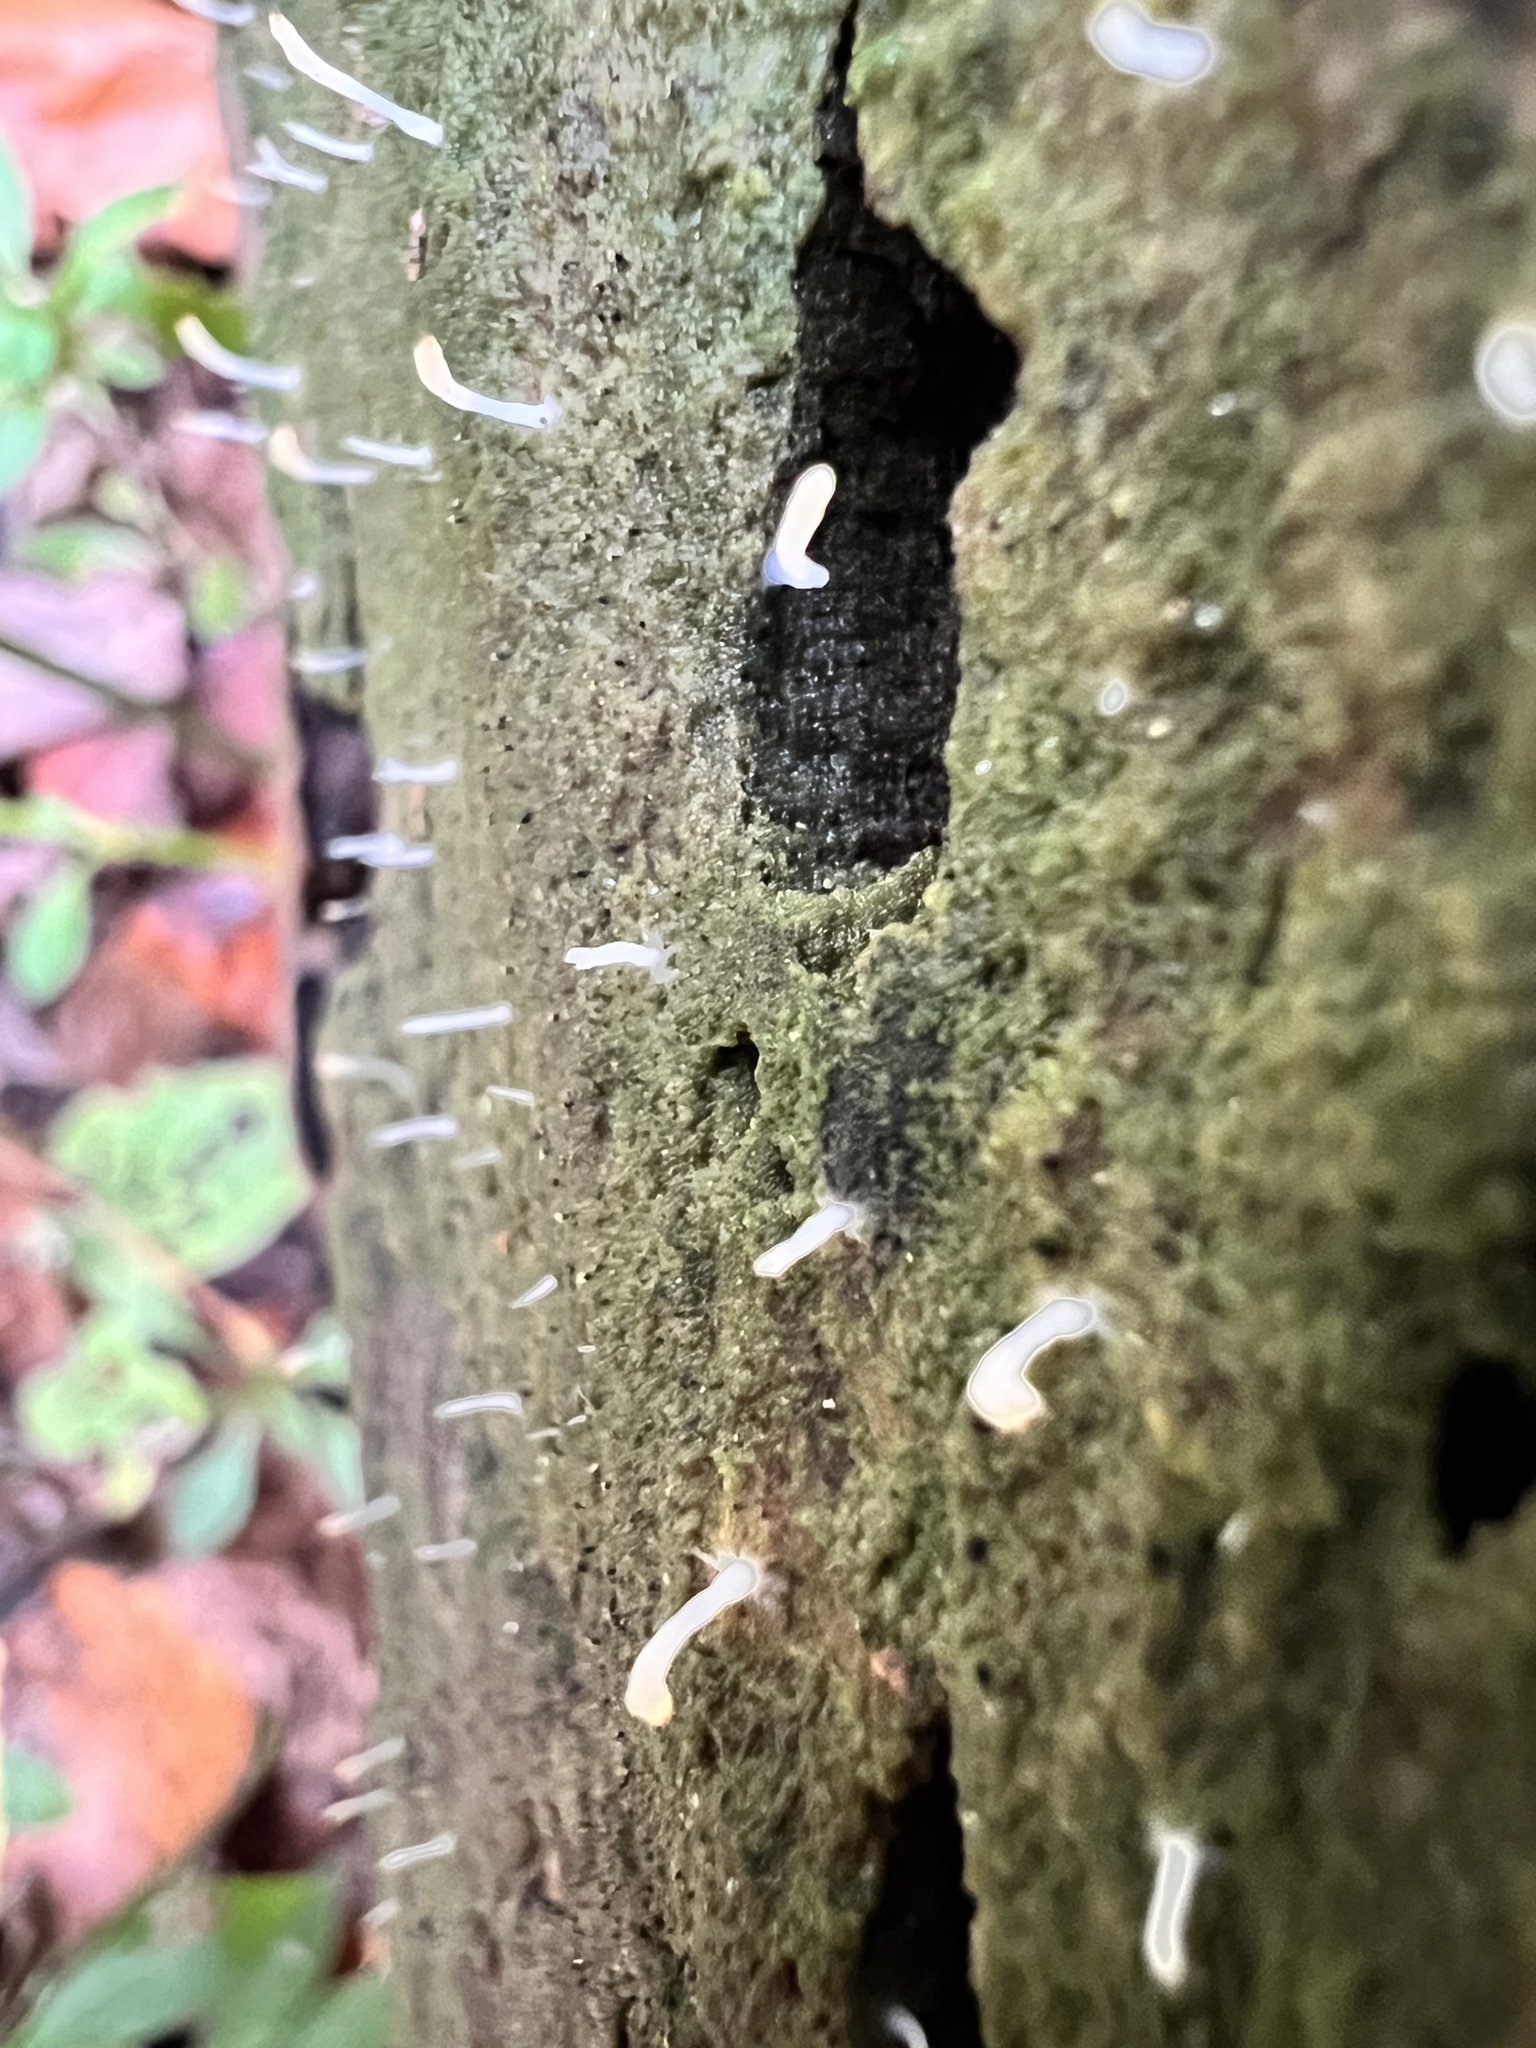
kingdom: Fungi
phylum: Basidiomycota
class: Agaricomycetes
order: Cantharellales
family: Hydnaceae
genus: Multiclavula
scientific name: Multiclavula mucida
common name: White green-algae coral
